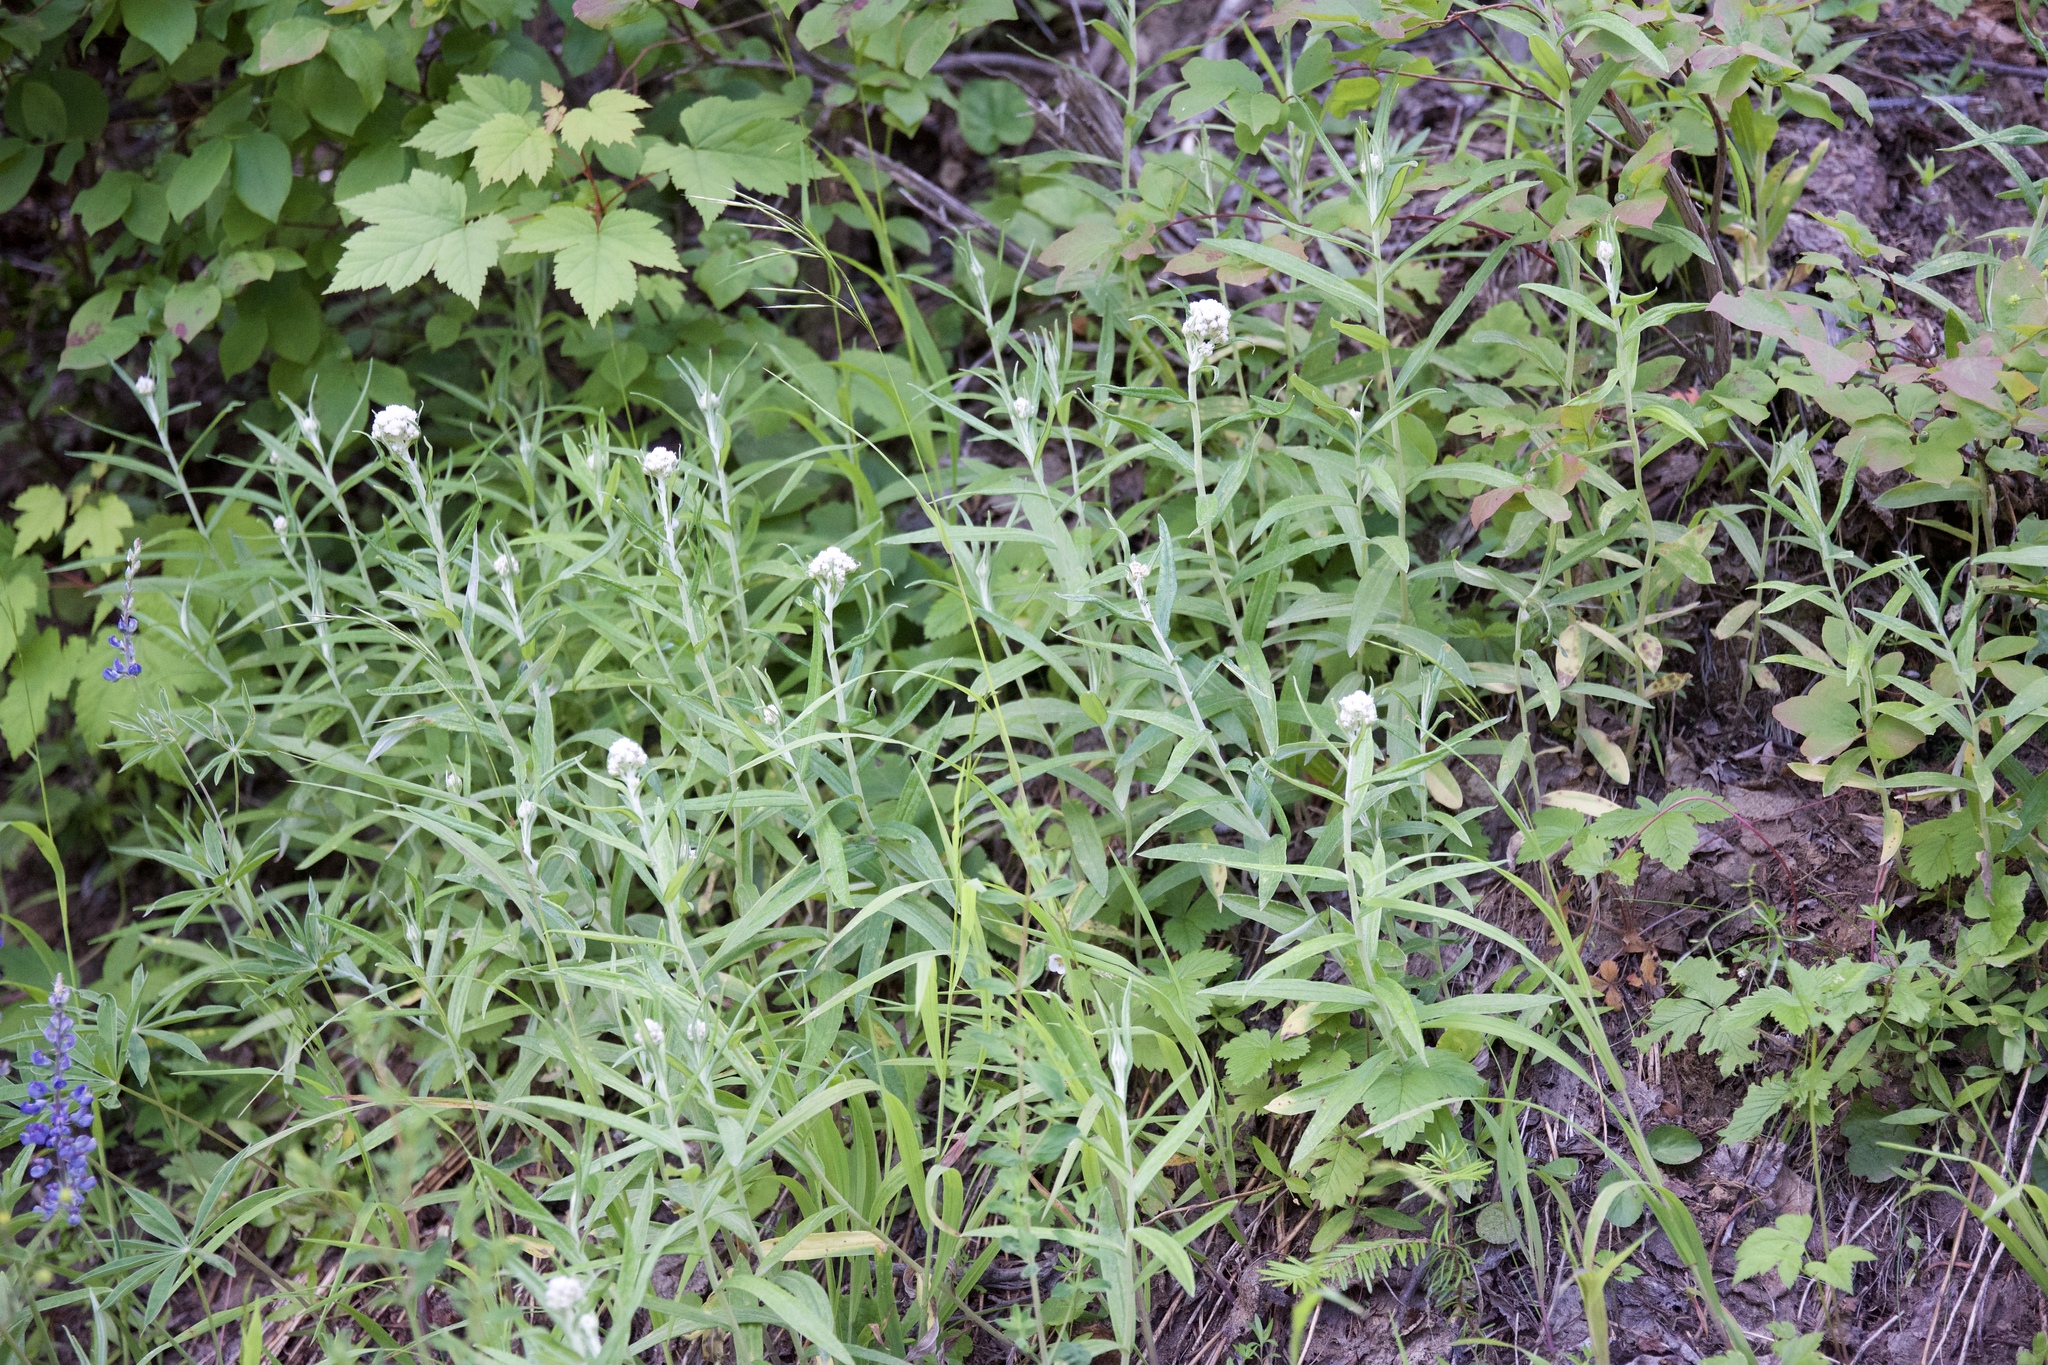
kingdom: Plantae
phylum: Tracheophyta
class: Magnoliopsida
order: Asterales
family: Asteraceae
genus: Anaphalis
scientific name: Anaphalis margaritacea
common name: Pearly everlasting
